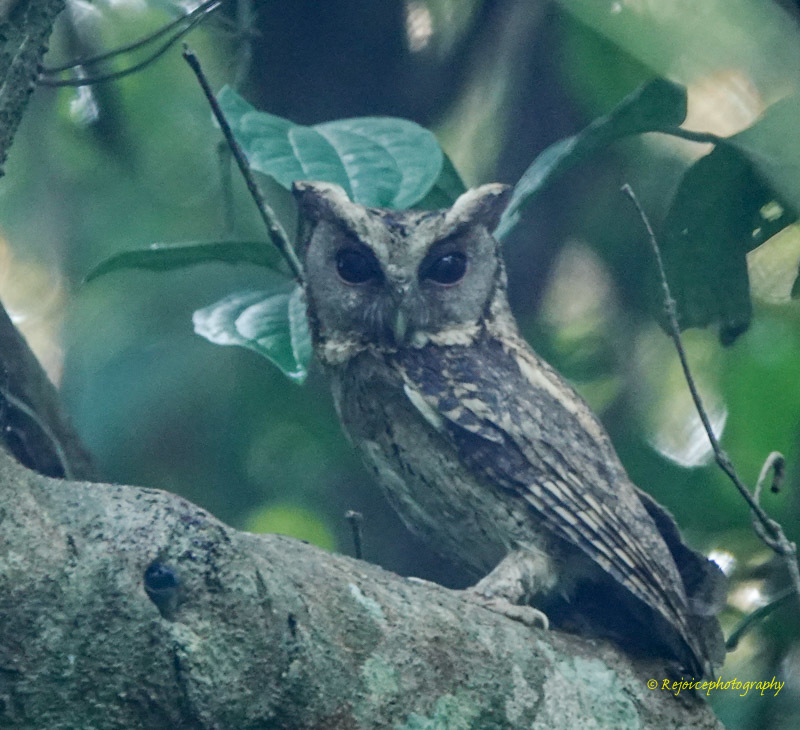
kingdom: Animalia
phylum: Chordata
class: Aves
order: Strigiformes
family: Strigidae
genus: Otus
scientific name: Otus lettia
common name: Collared scops owl
